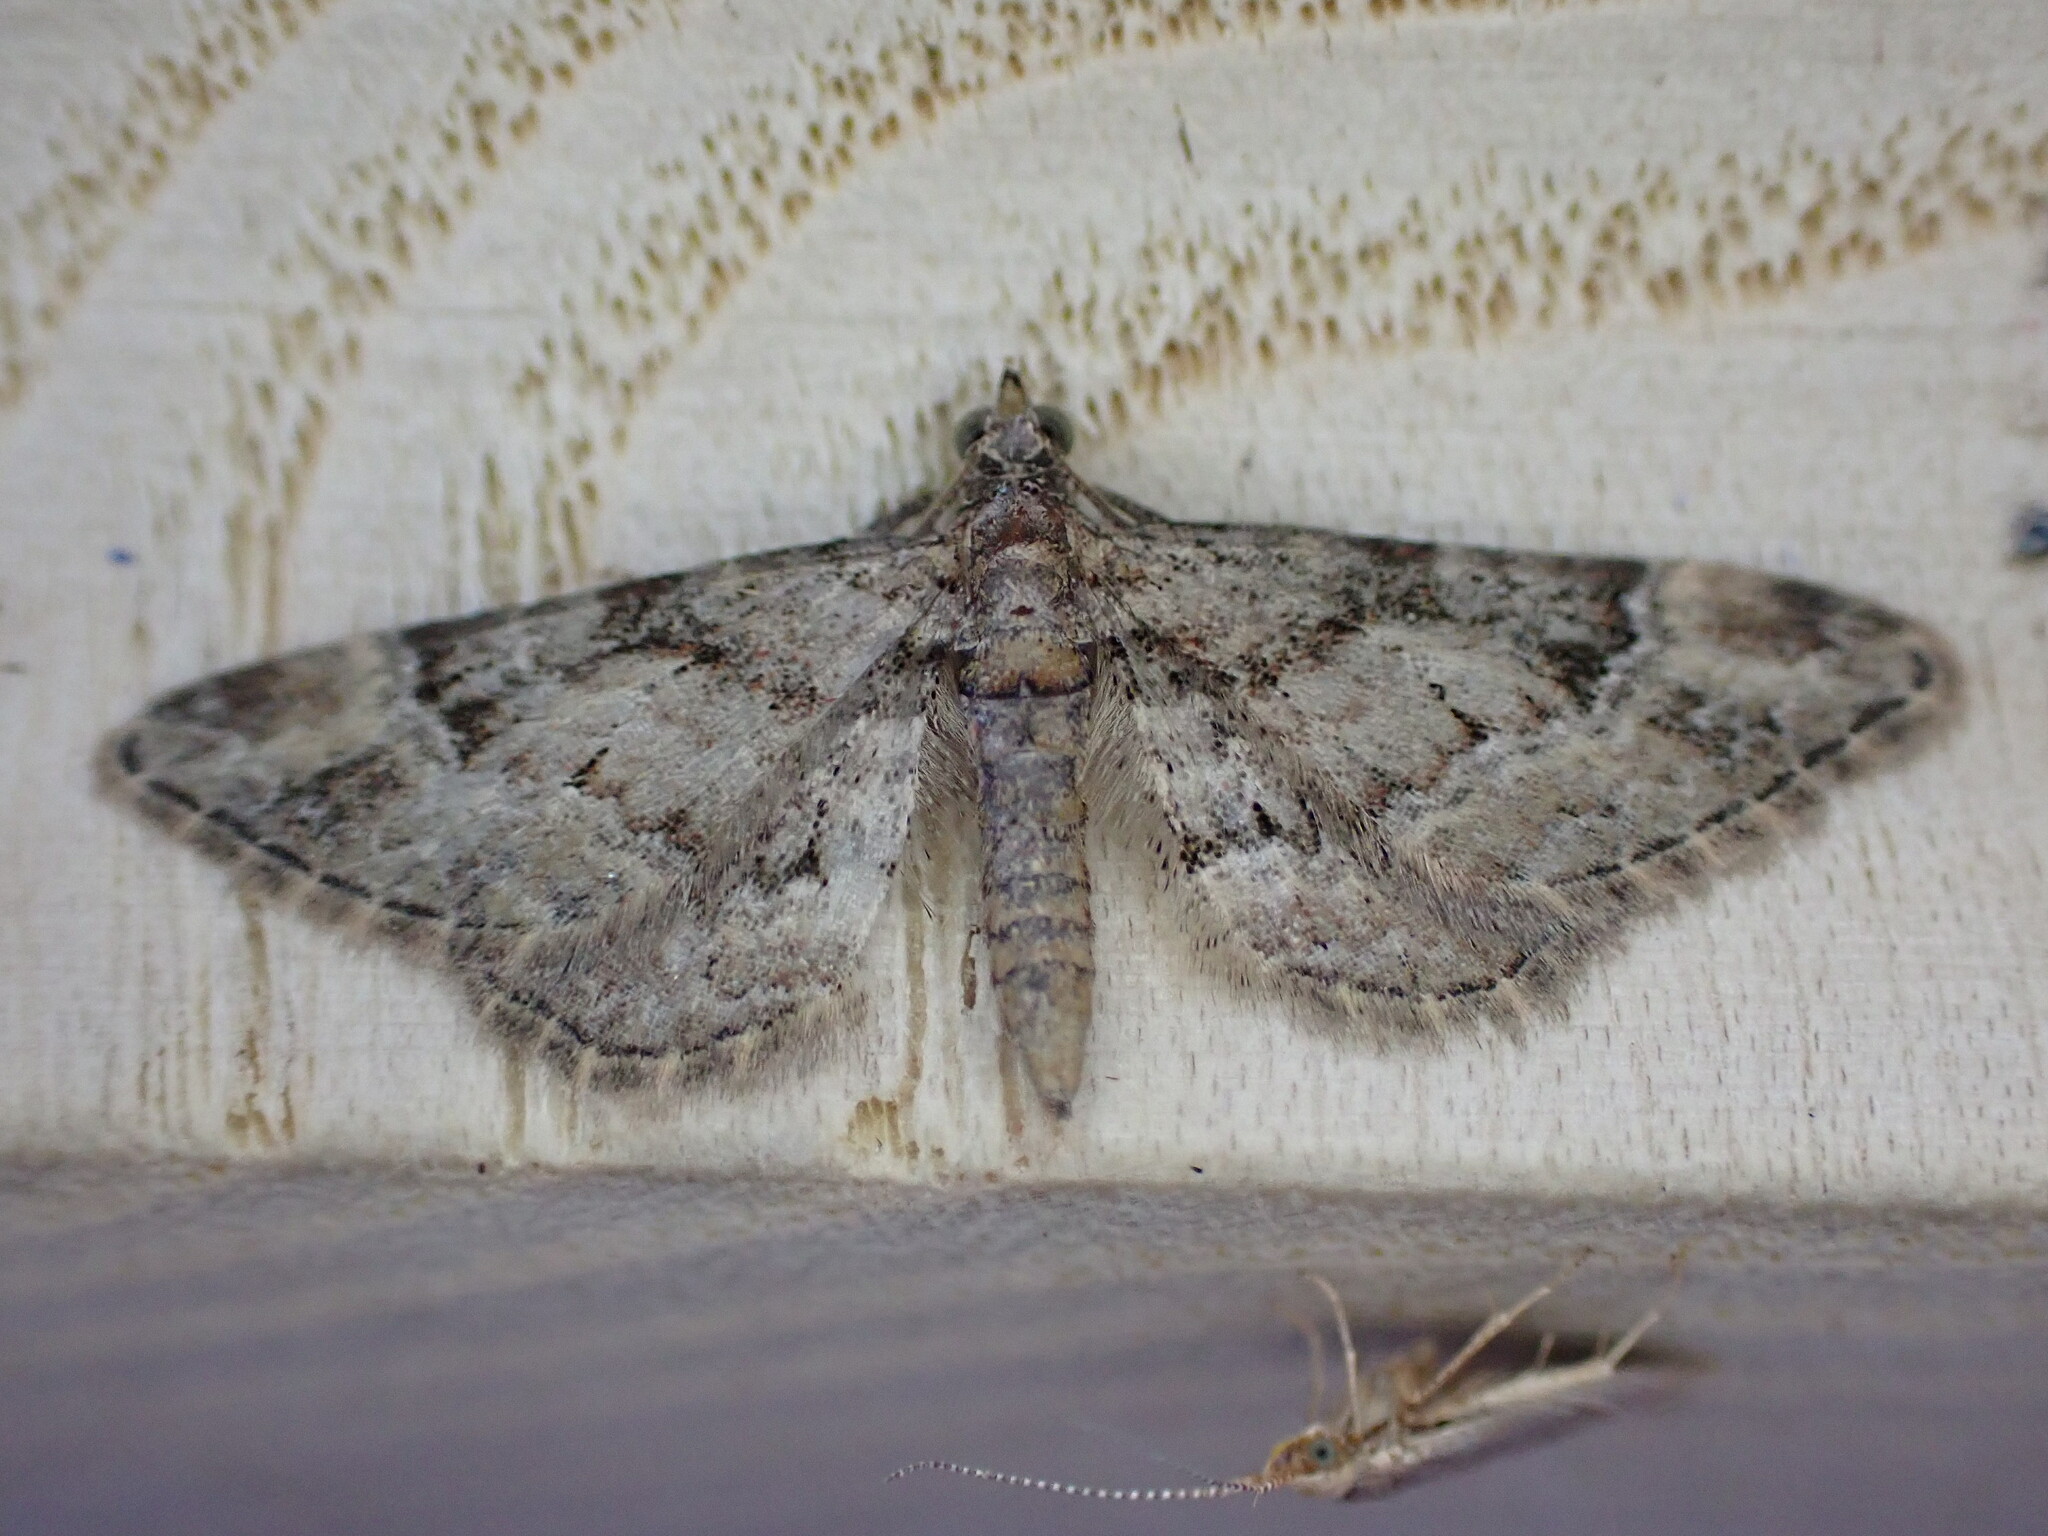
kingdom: Animalia
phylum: Arthropoda
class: Insecta
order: Lepidoptera
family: Geometridae
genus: Gymnoscelis
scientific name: Gymnoscelis rufifasciata
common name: Double-striped pug
